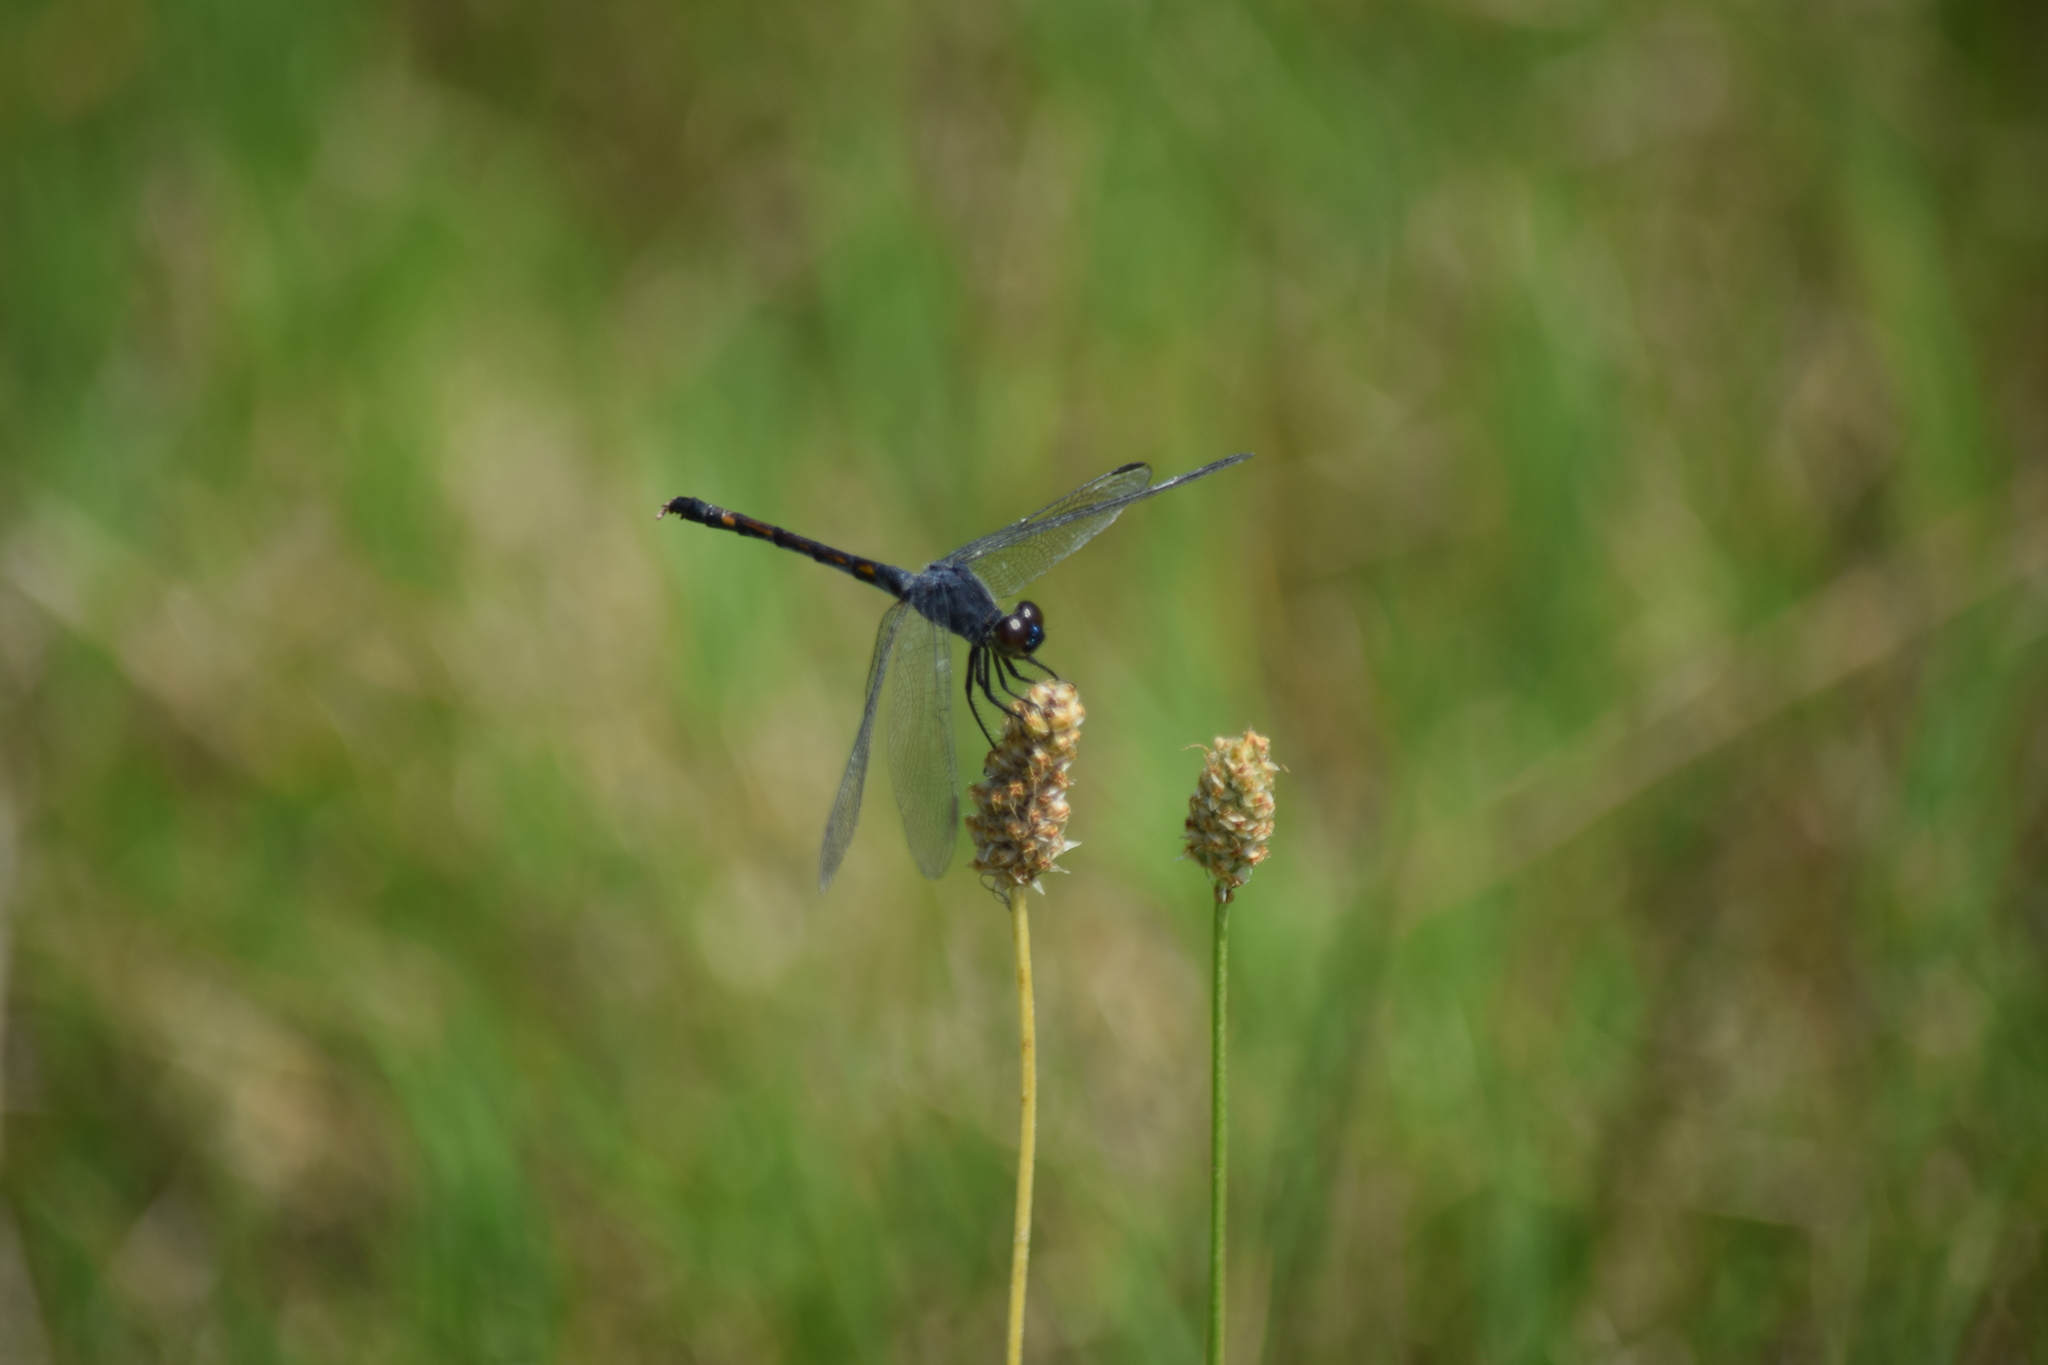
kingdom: Animalia
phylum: Arthropoda
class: Insecta
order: Odonata
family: Libellulidae
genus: Erythrodiplax
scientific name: Erythrodiplax berenice
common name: Seaside dragonlet
